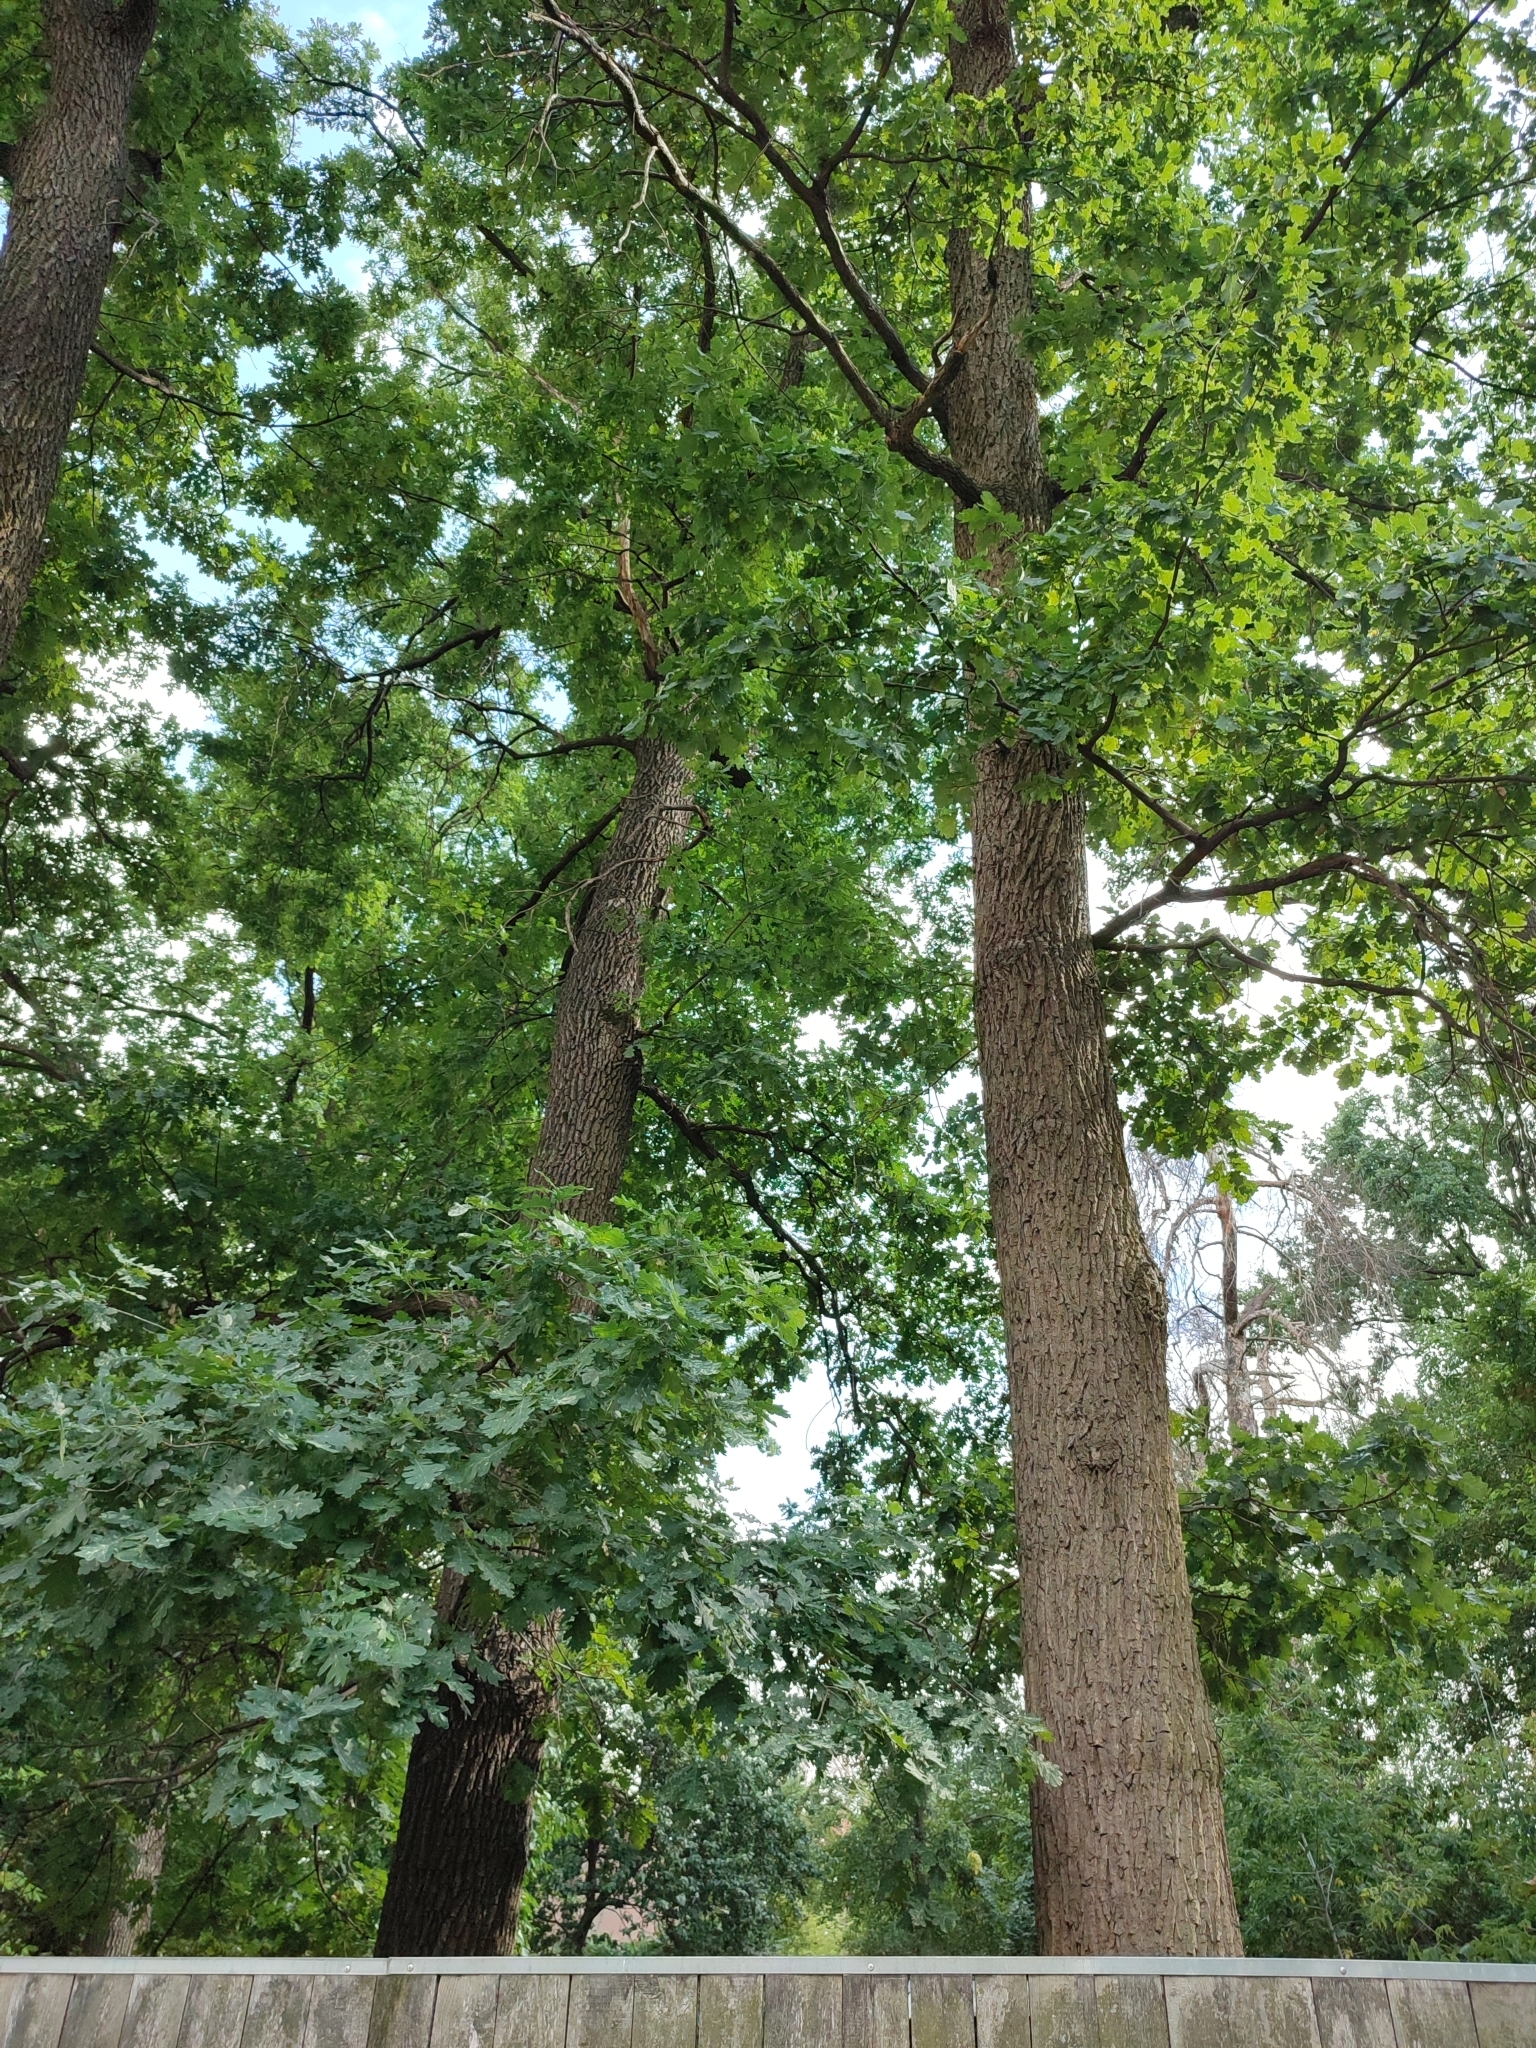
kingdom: Plantae
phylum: Tracheophyta
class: Magnoliopsida
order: Fagales
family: Fagaceae
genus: Quercus
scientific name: Quercus robur
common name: Pedunculate oak
